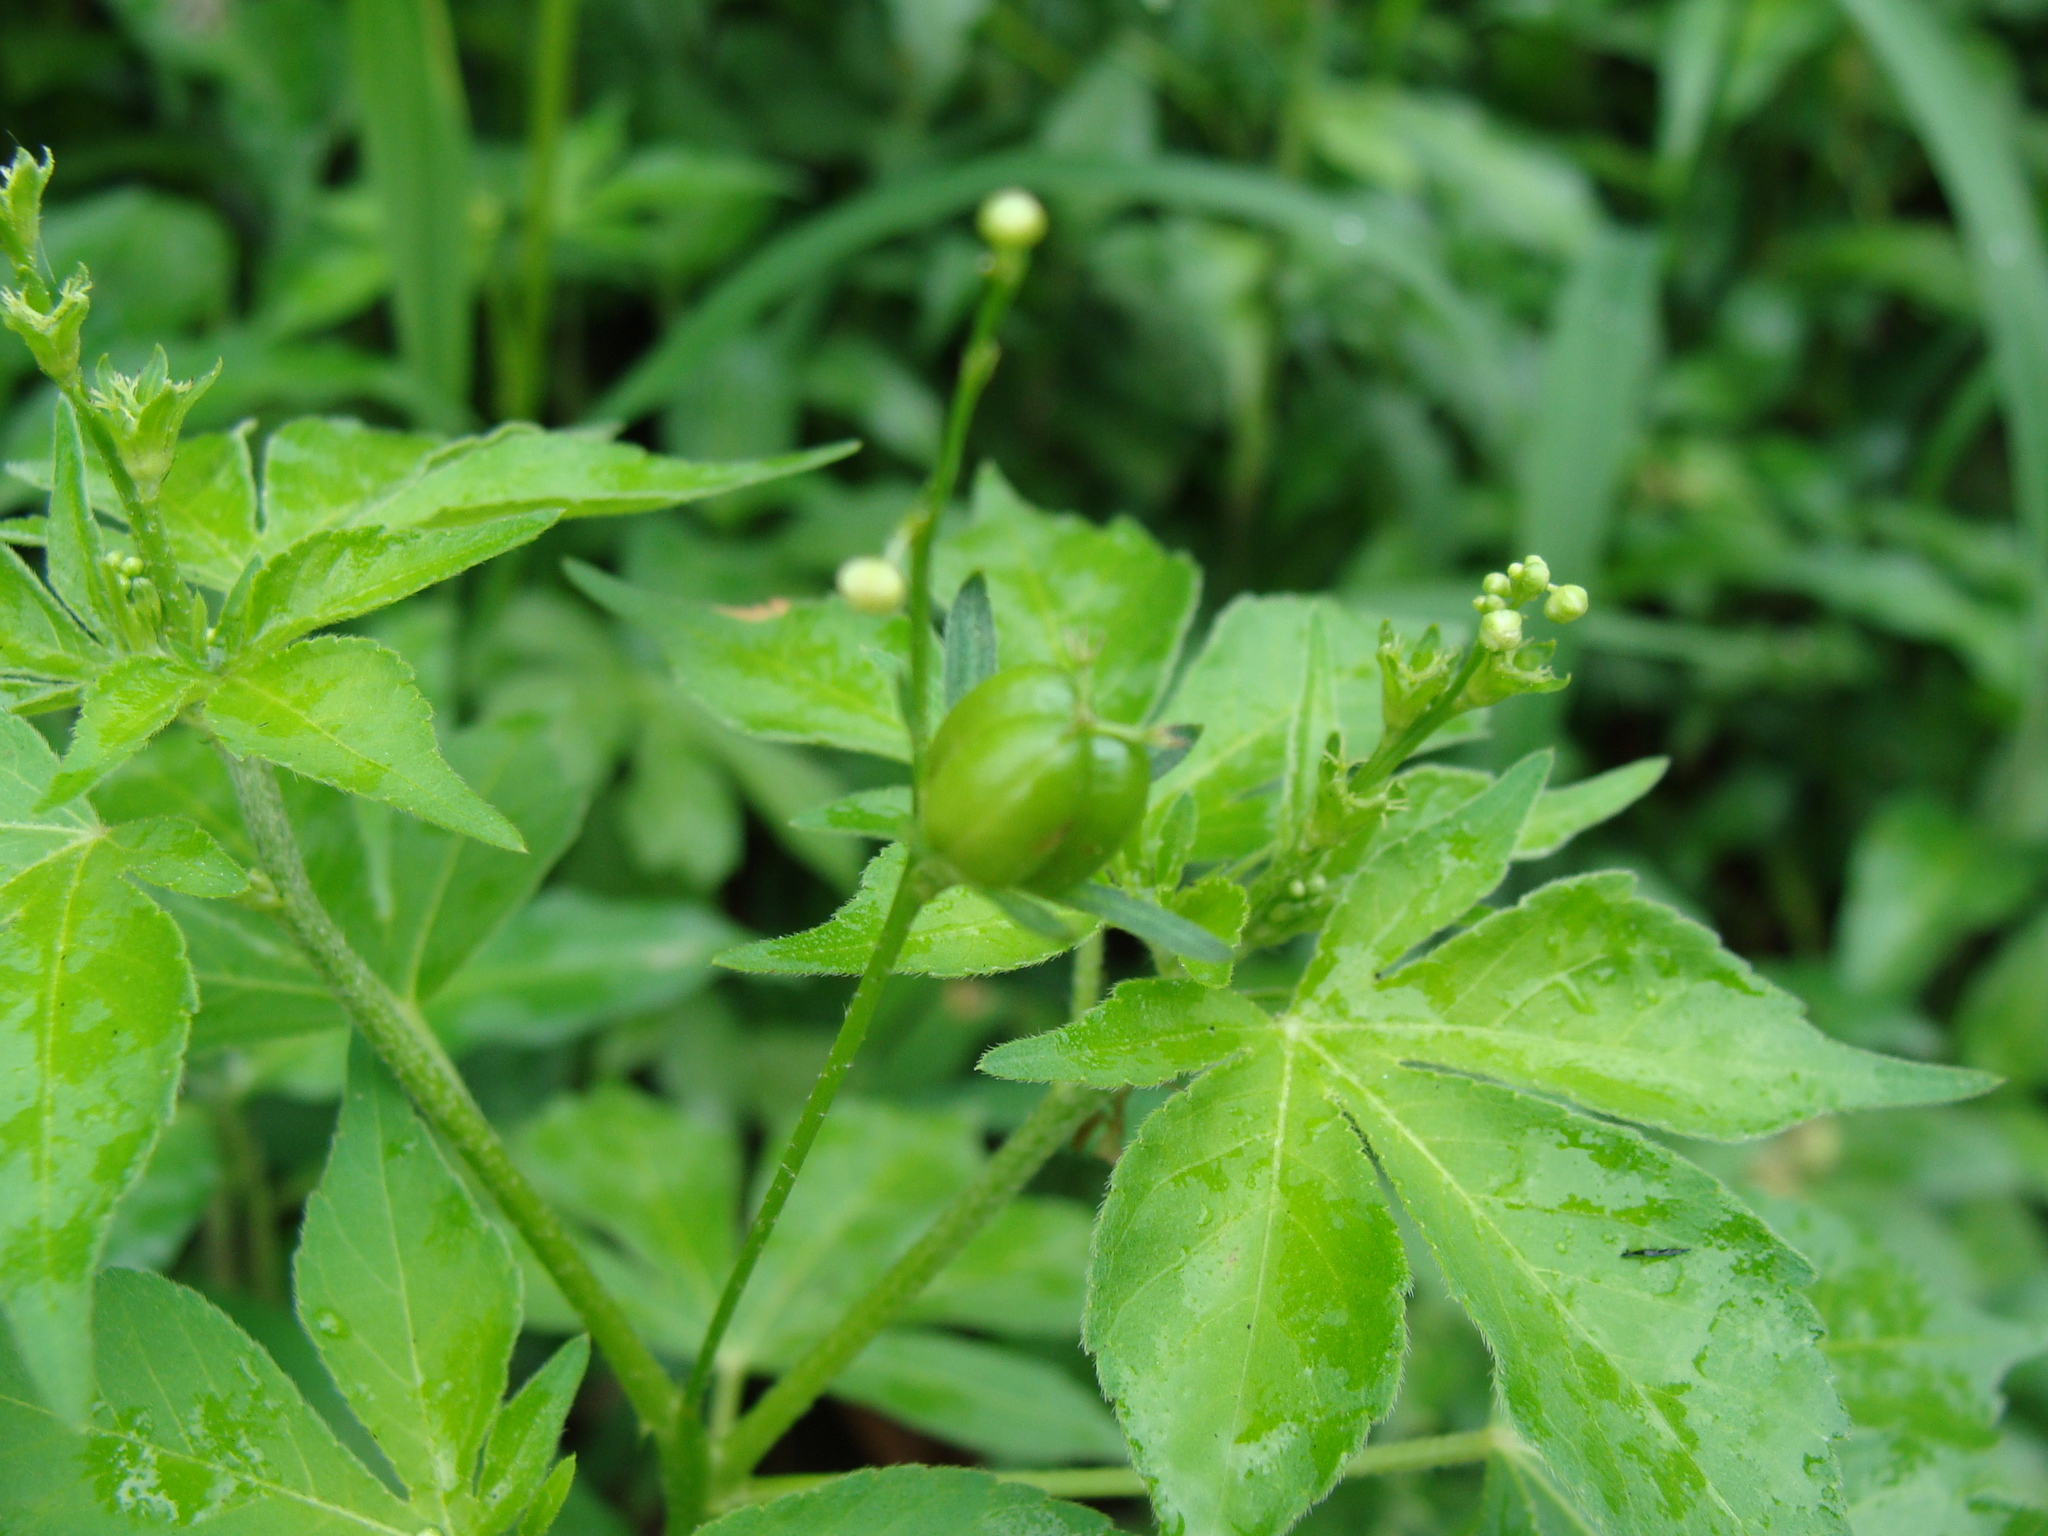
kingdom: Plantae
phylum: Tracheophyta
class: Magnoliopsida
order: Malpighiales
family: Euphorbiaceae
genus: Astraea
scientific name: Astraea lobata
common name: Lobed croton
